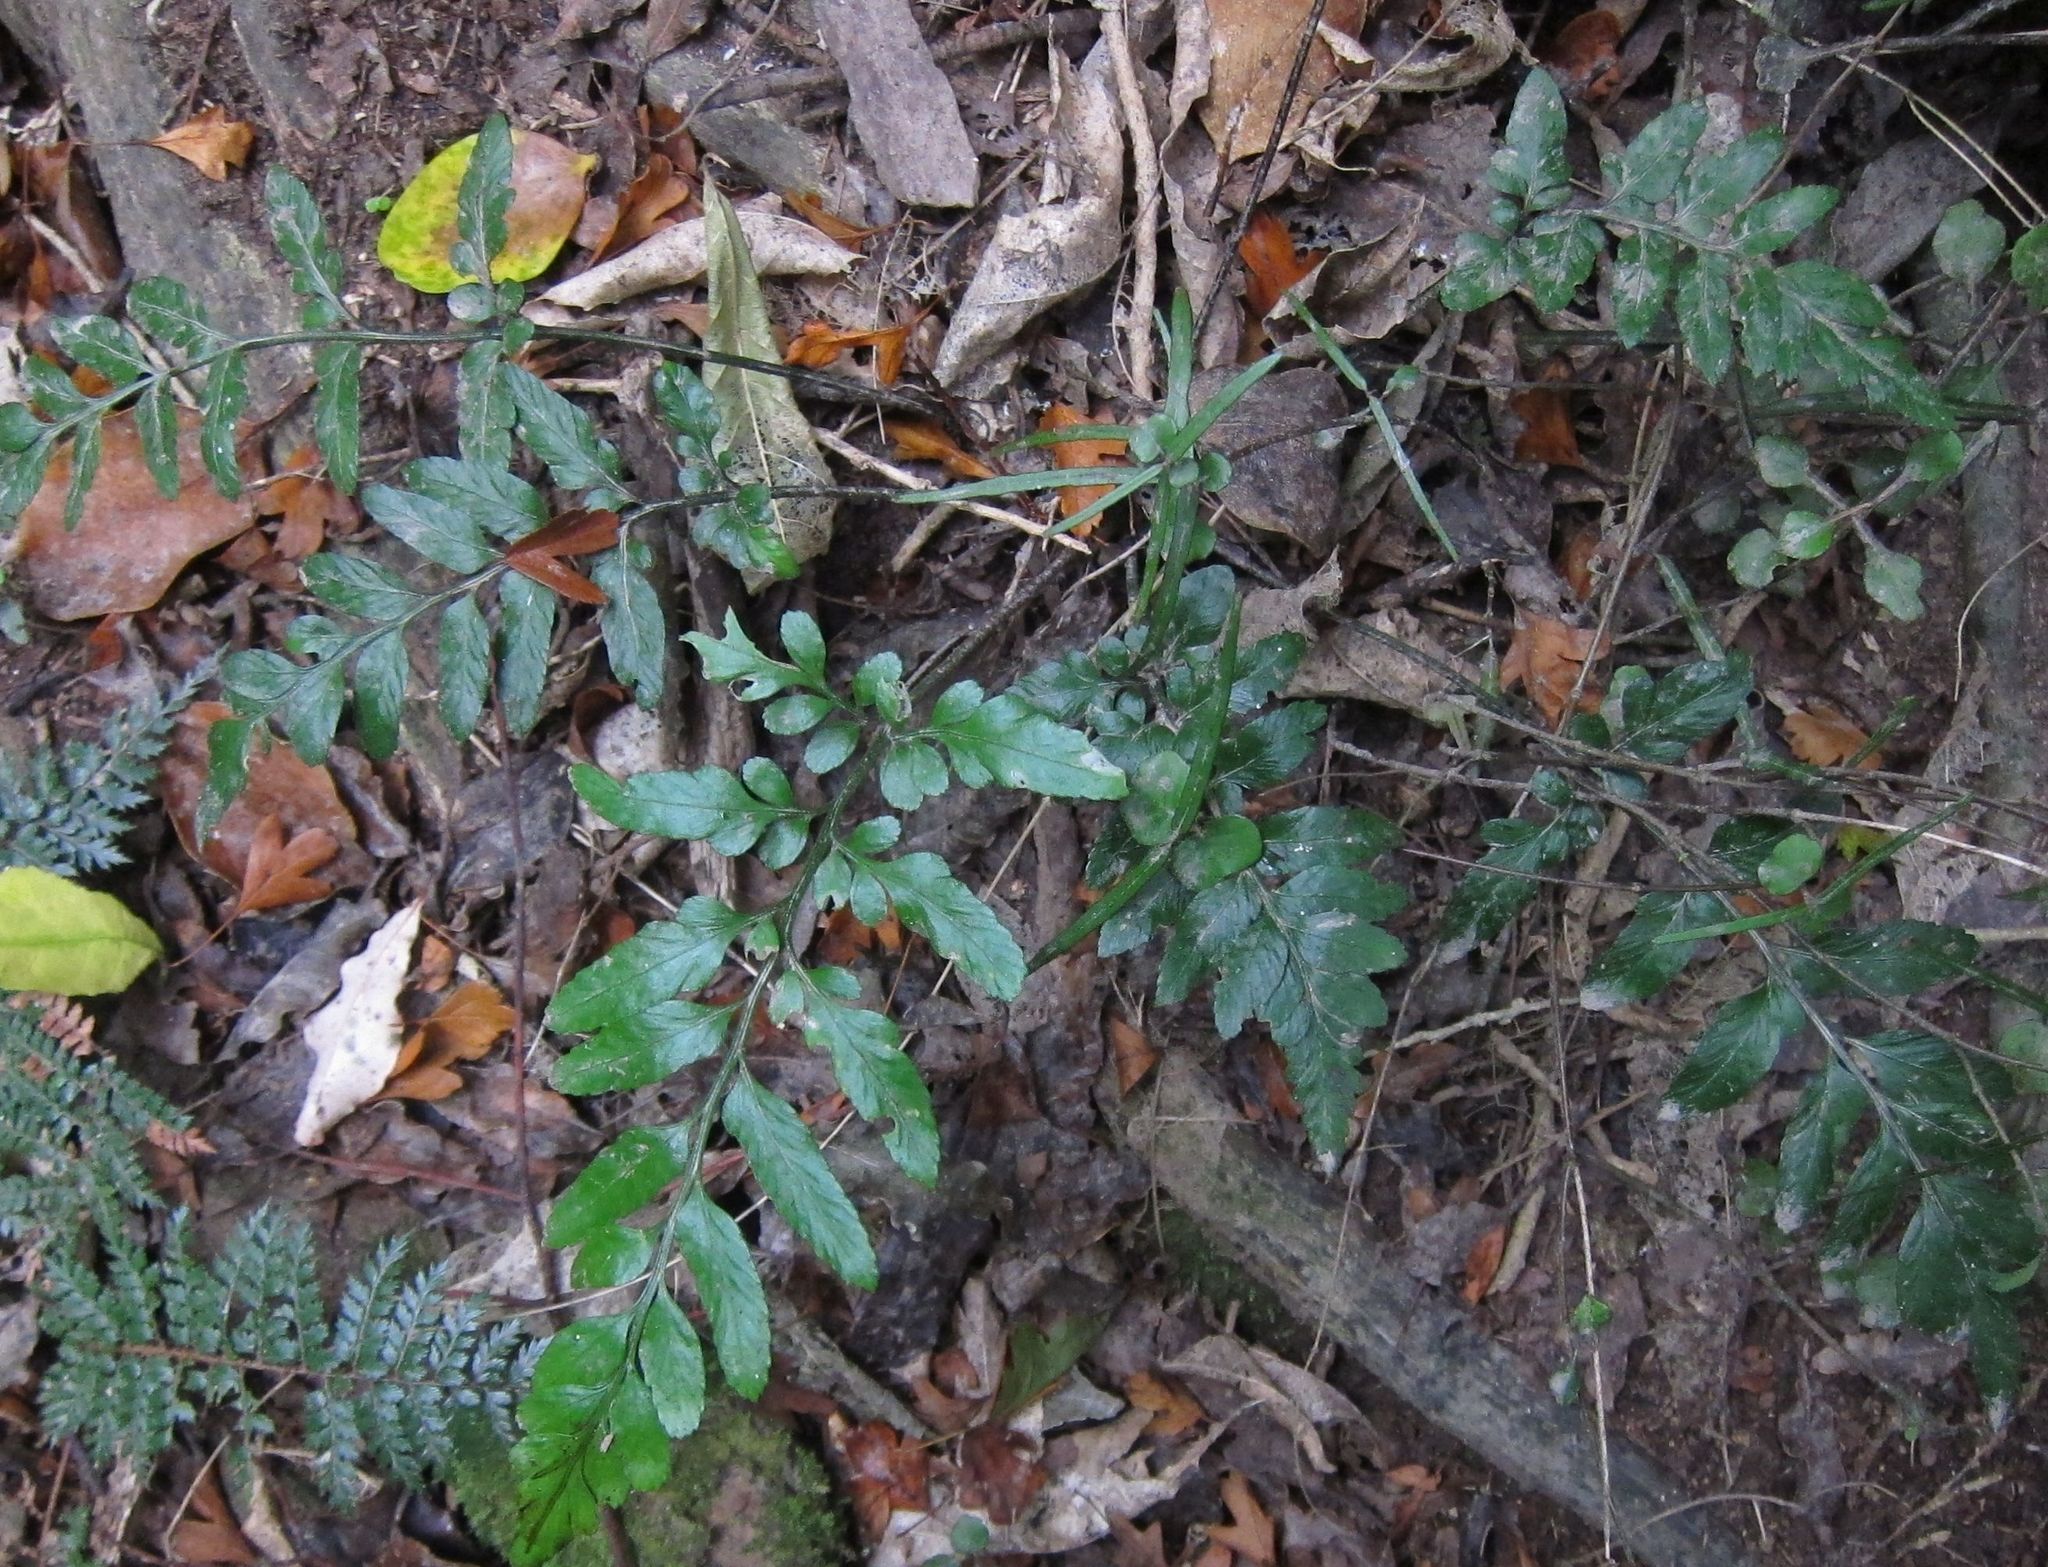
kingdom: Plantae
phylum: Tracheophyta
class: Polypodiopsida
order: Polypodiales
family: Aspleniaceae
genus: Asplenium
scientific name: Asplenium lyallii
